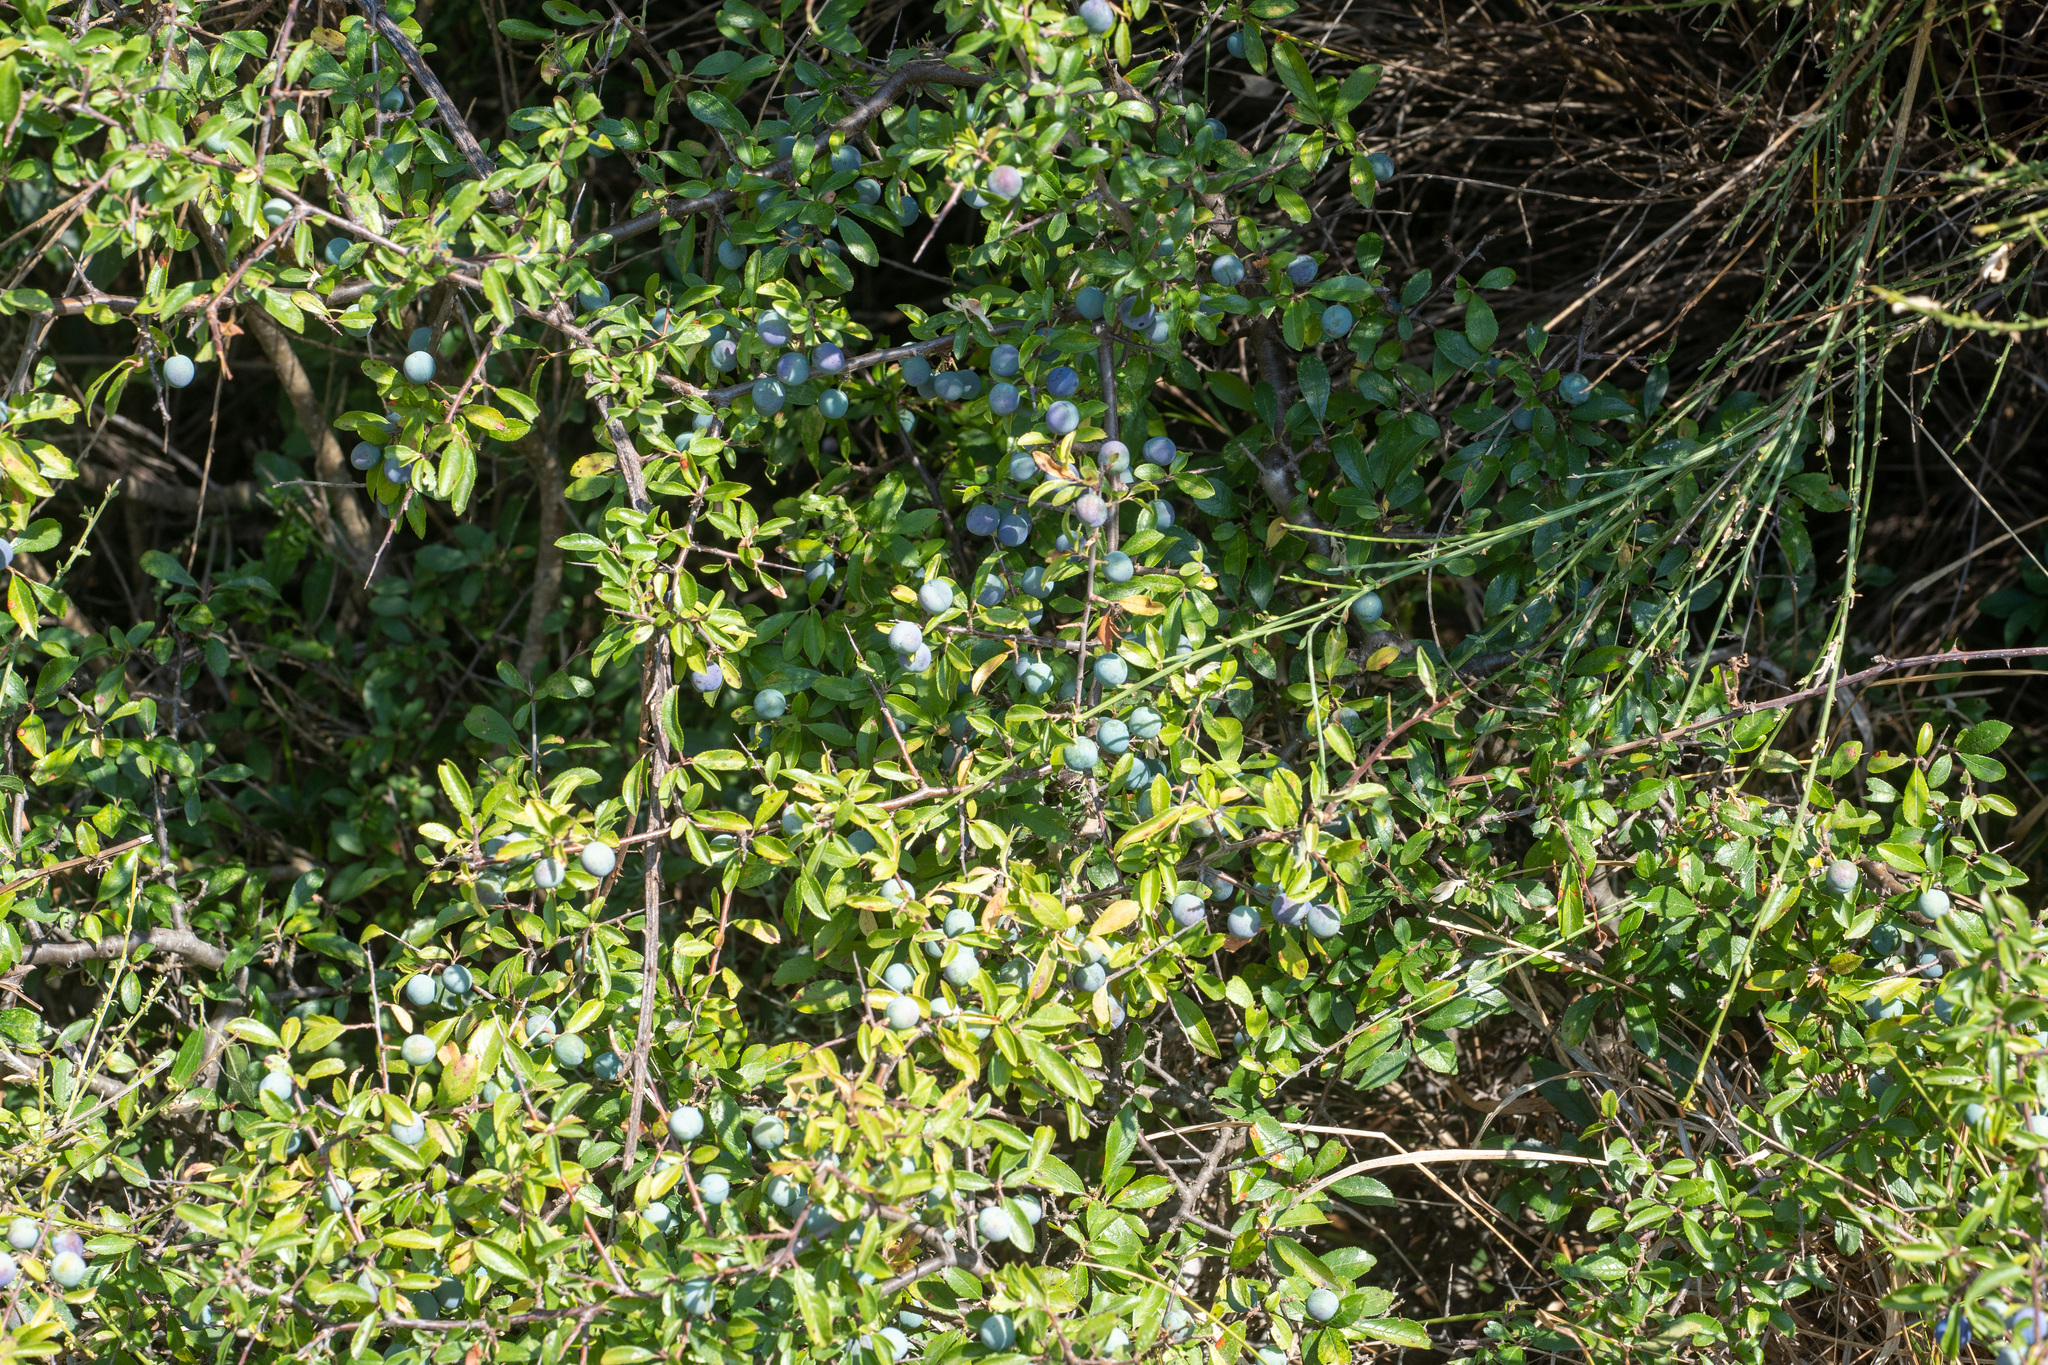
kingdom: Plantae
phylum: Tracheophyta
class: Magnoliopsida
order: Rosales
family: Rosaceae
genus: Prunus
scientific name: Prunus spinosa
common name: Blackthorn
